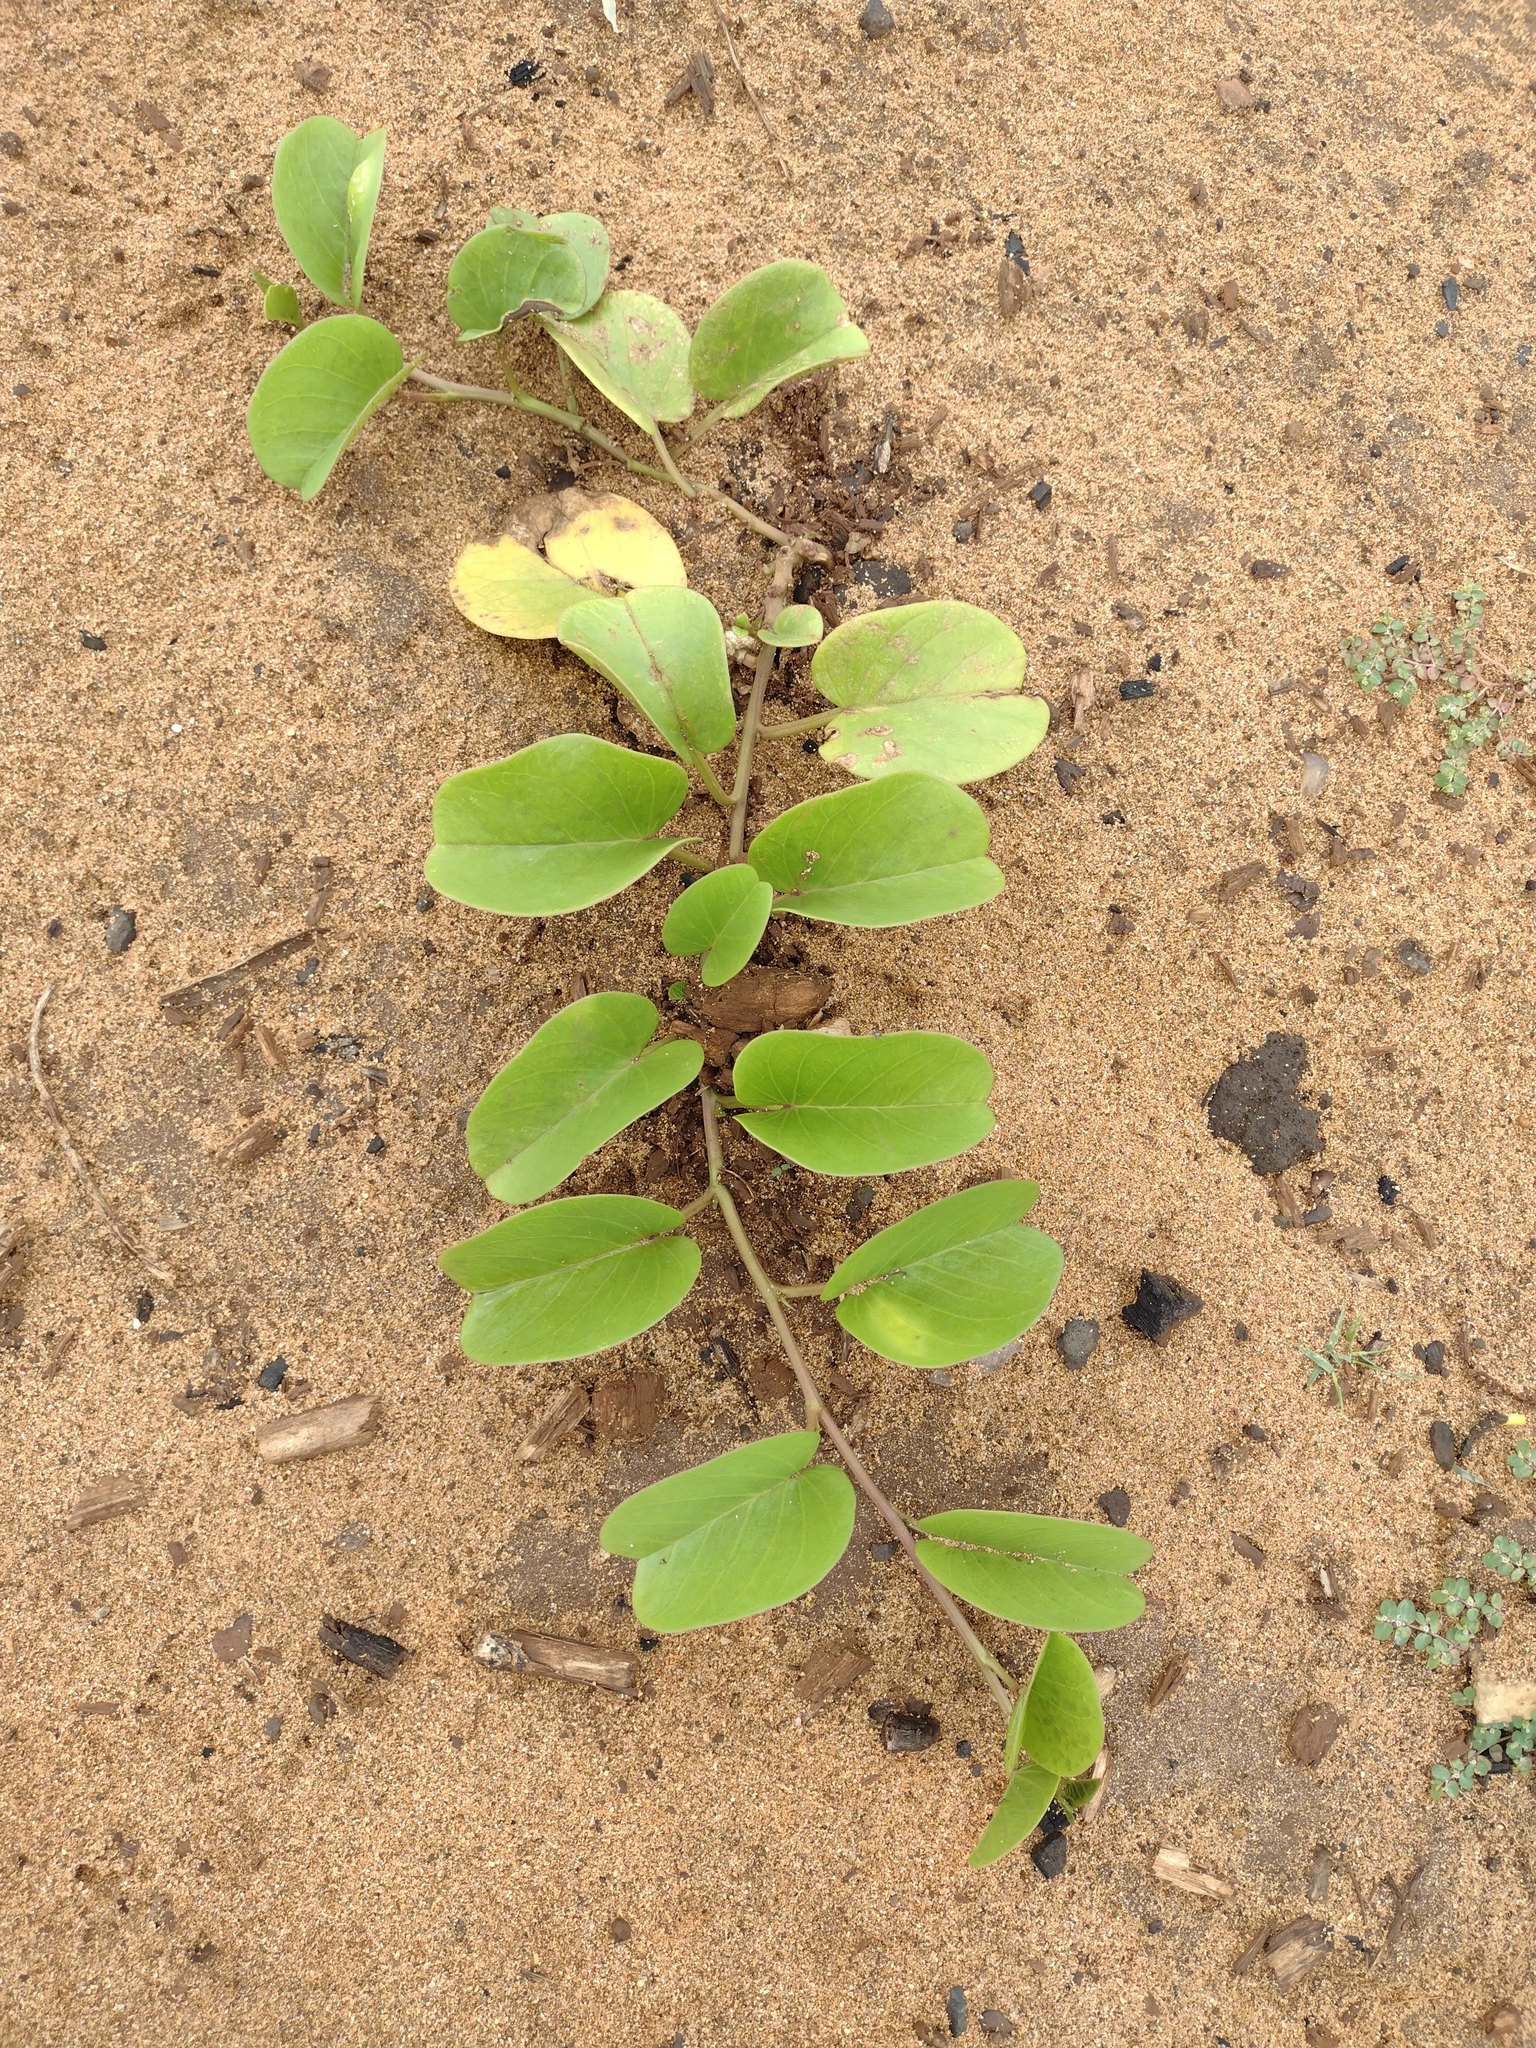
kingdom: Plantae
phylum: Tracheophyta
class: Magnoliopsida
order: Solanales
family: Convolvulaceae
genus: Ipomoea
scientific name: Ipomoea pes-caprae
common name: Beach morning glory
